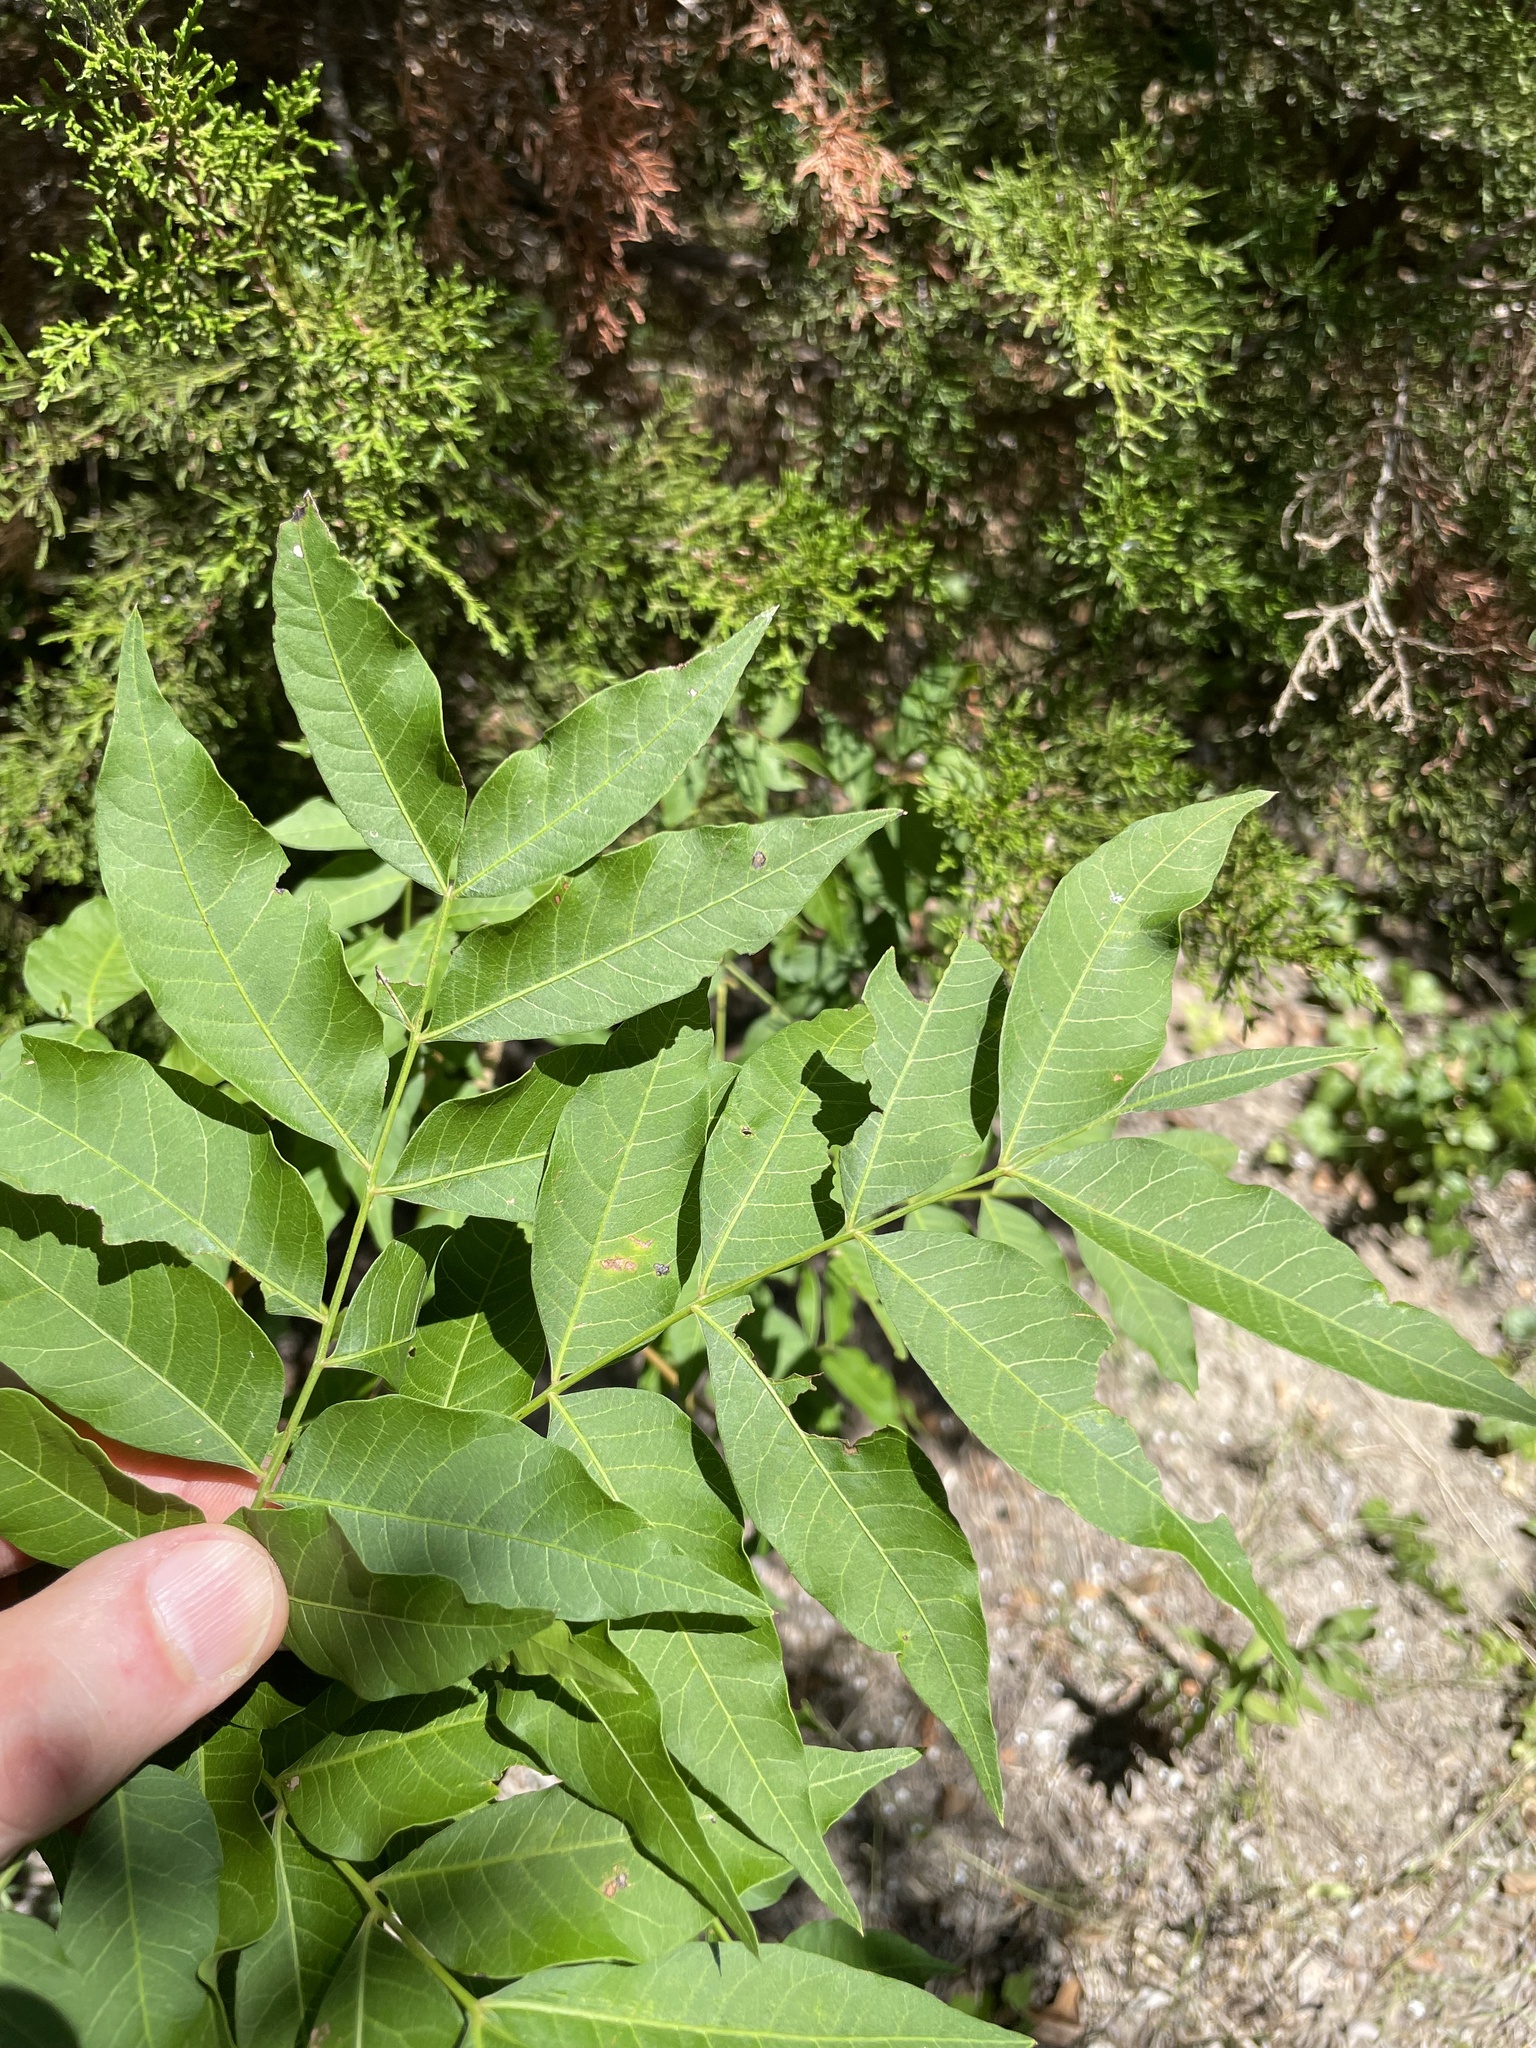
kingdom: Plantae
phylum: Tracheophyta
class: Magnoliopsida
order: Sapindales
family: Anacardiaceae
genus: Pistacia
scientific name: Pistacia chinensis
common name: Chinese pistache
